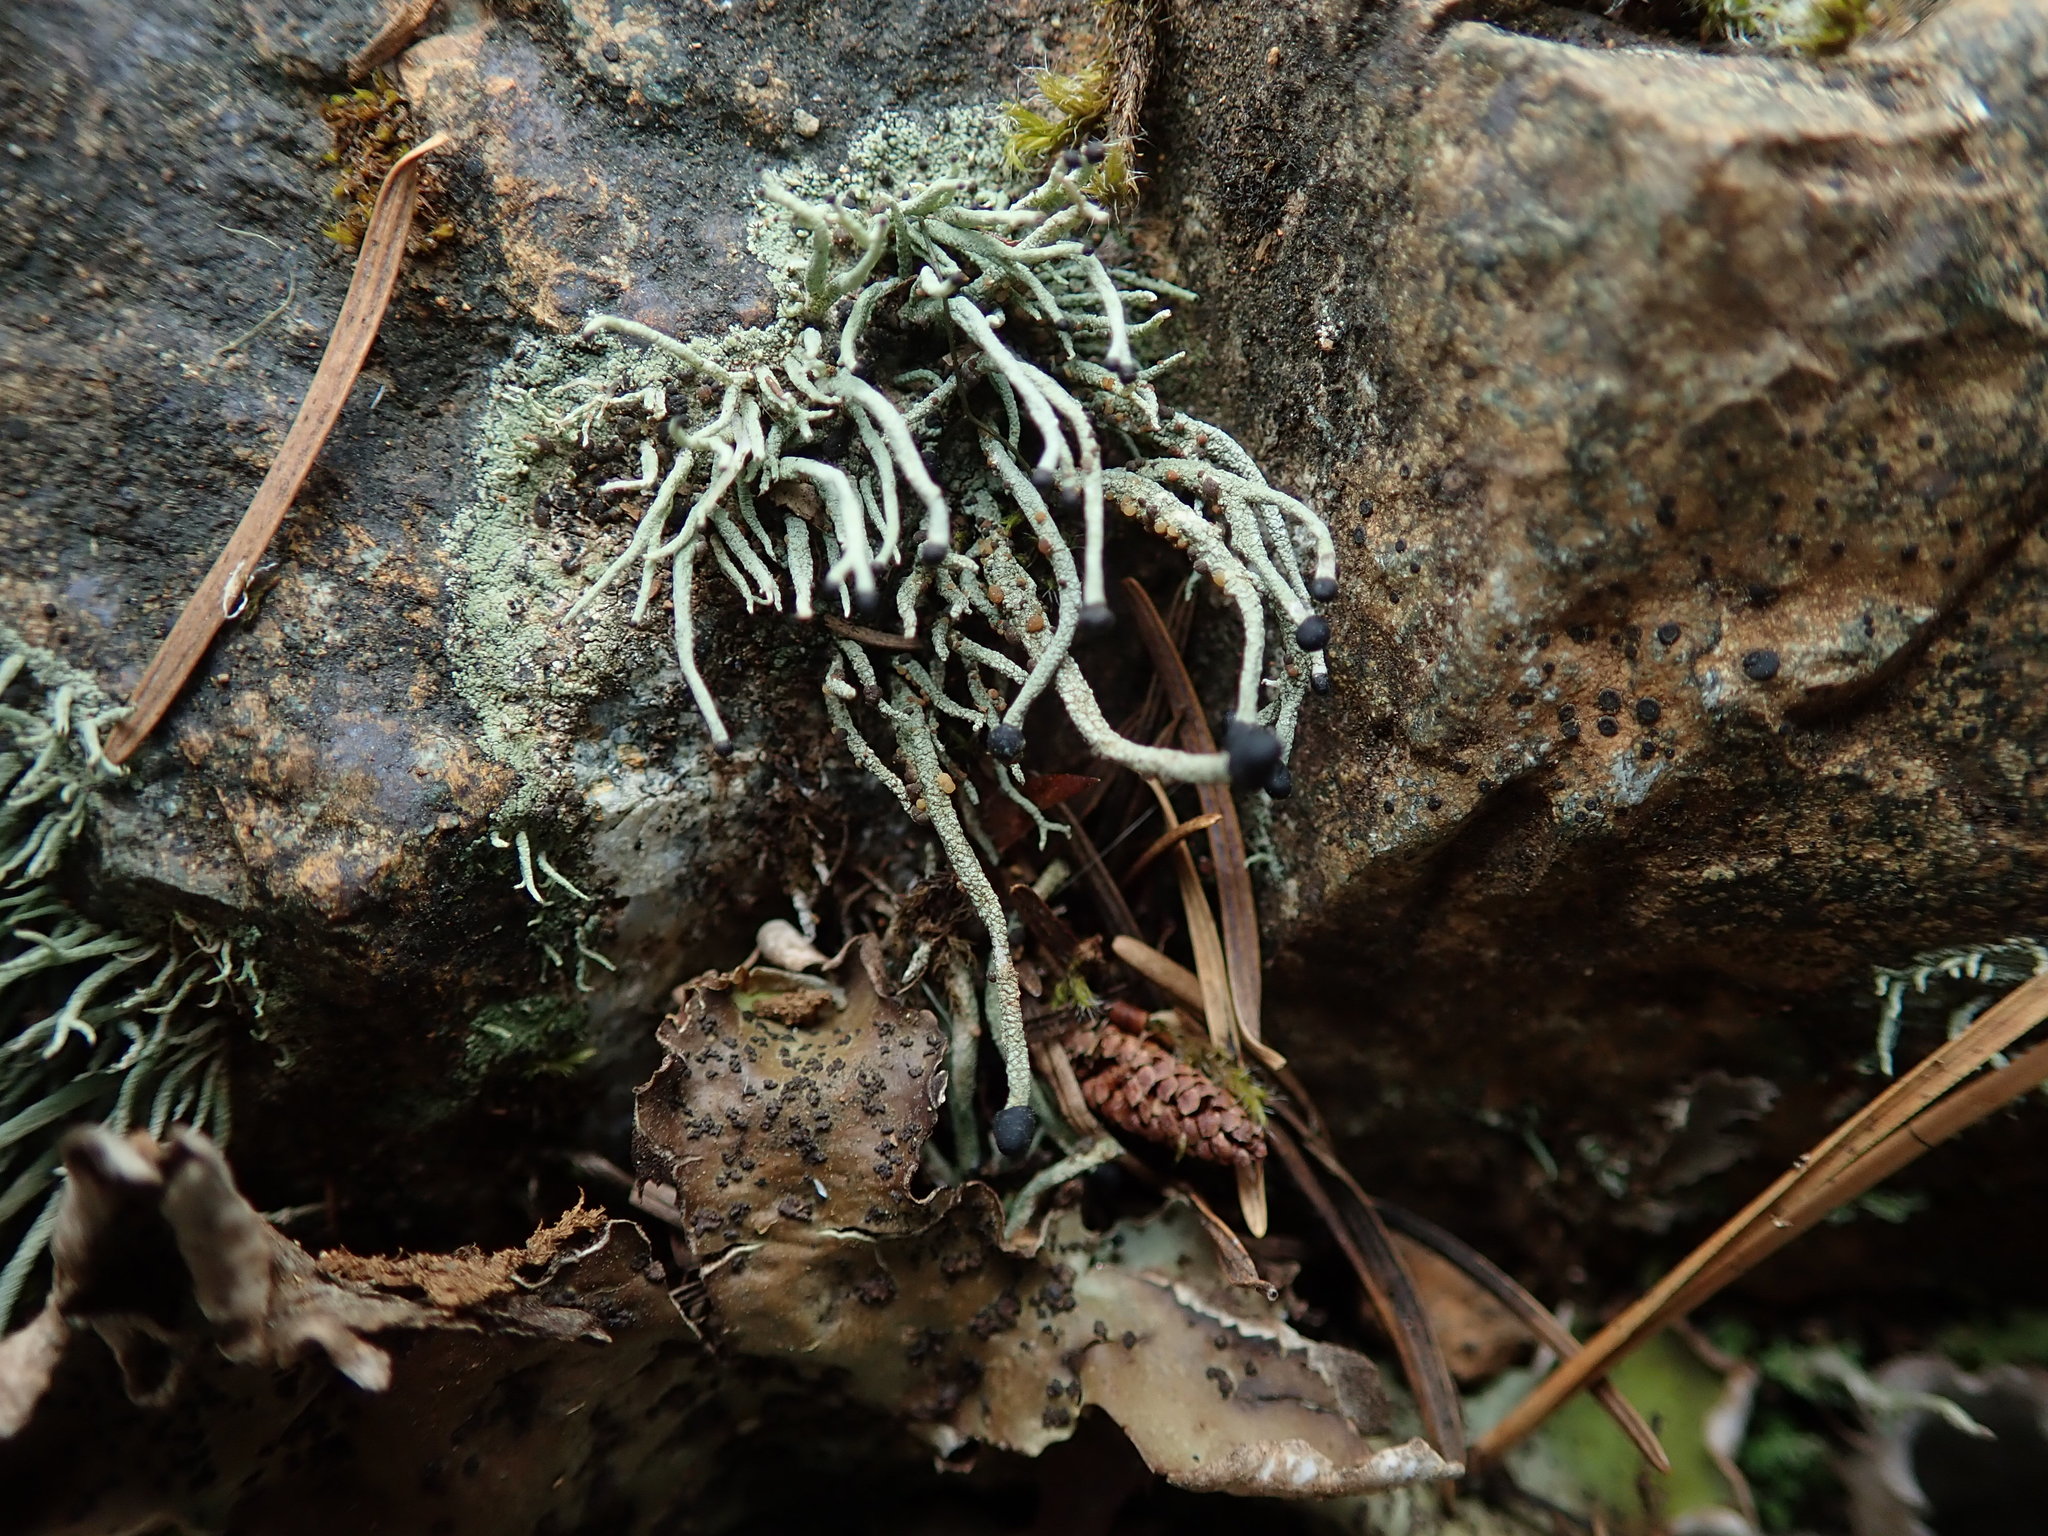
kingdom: Fungi
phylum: Ascomycota
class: Lecanoromycetes
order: Lecanorales
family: Cladoniaceae
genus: Pilophorus
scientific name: Pilophorus acicularis
